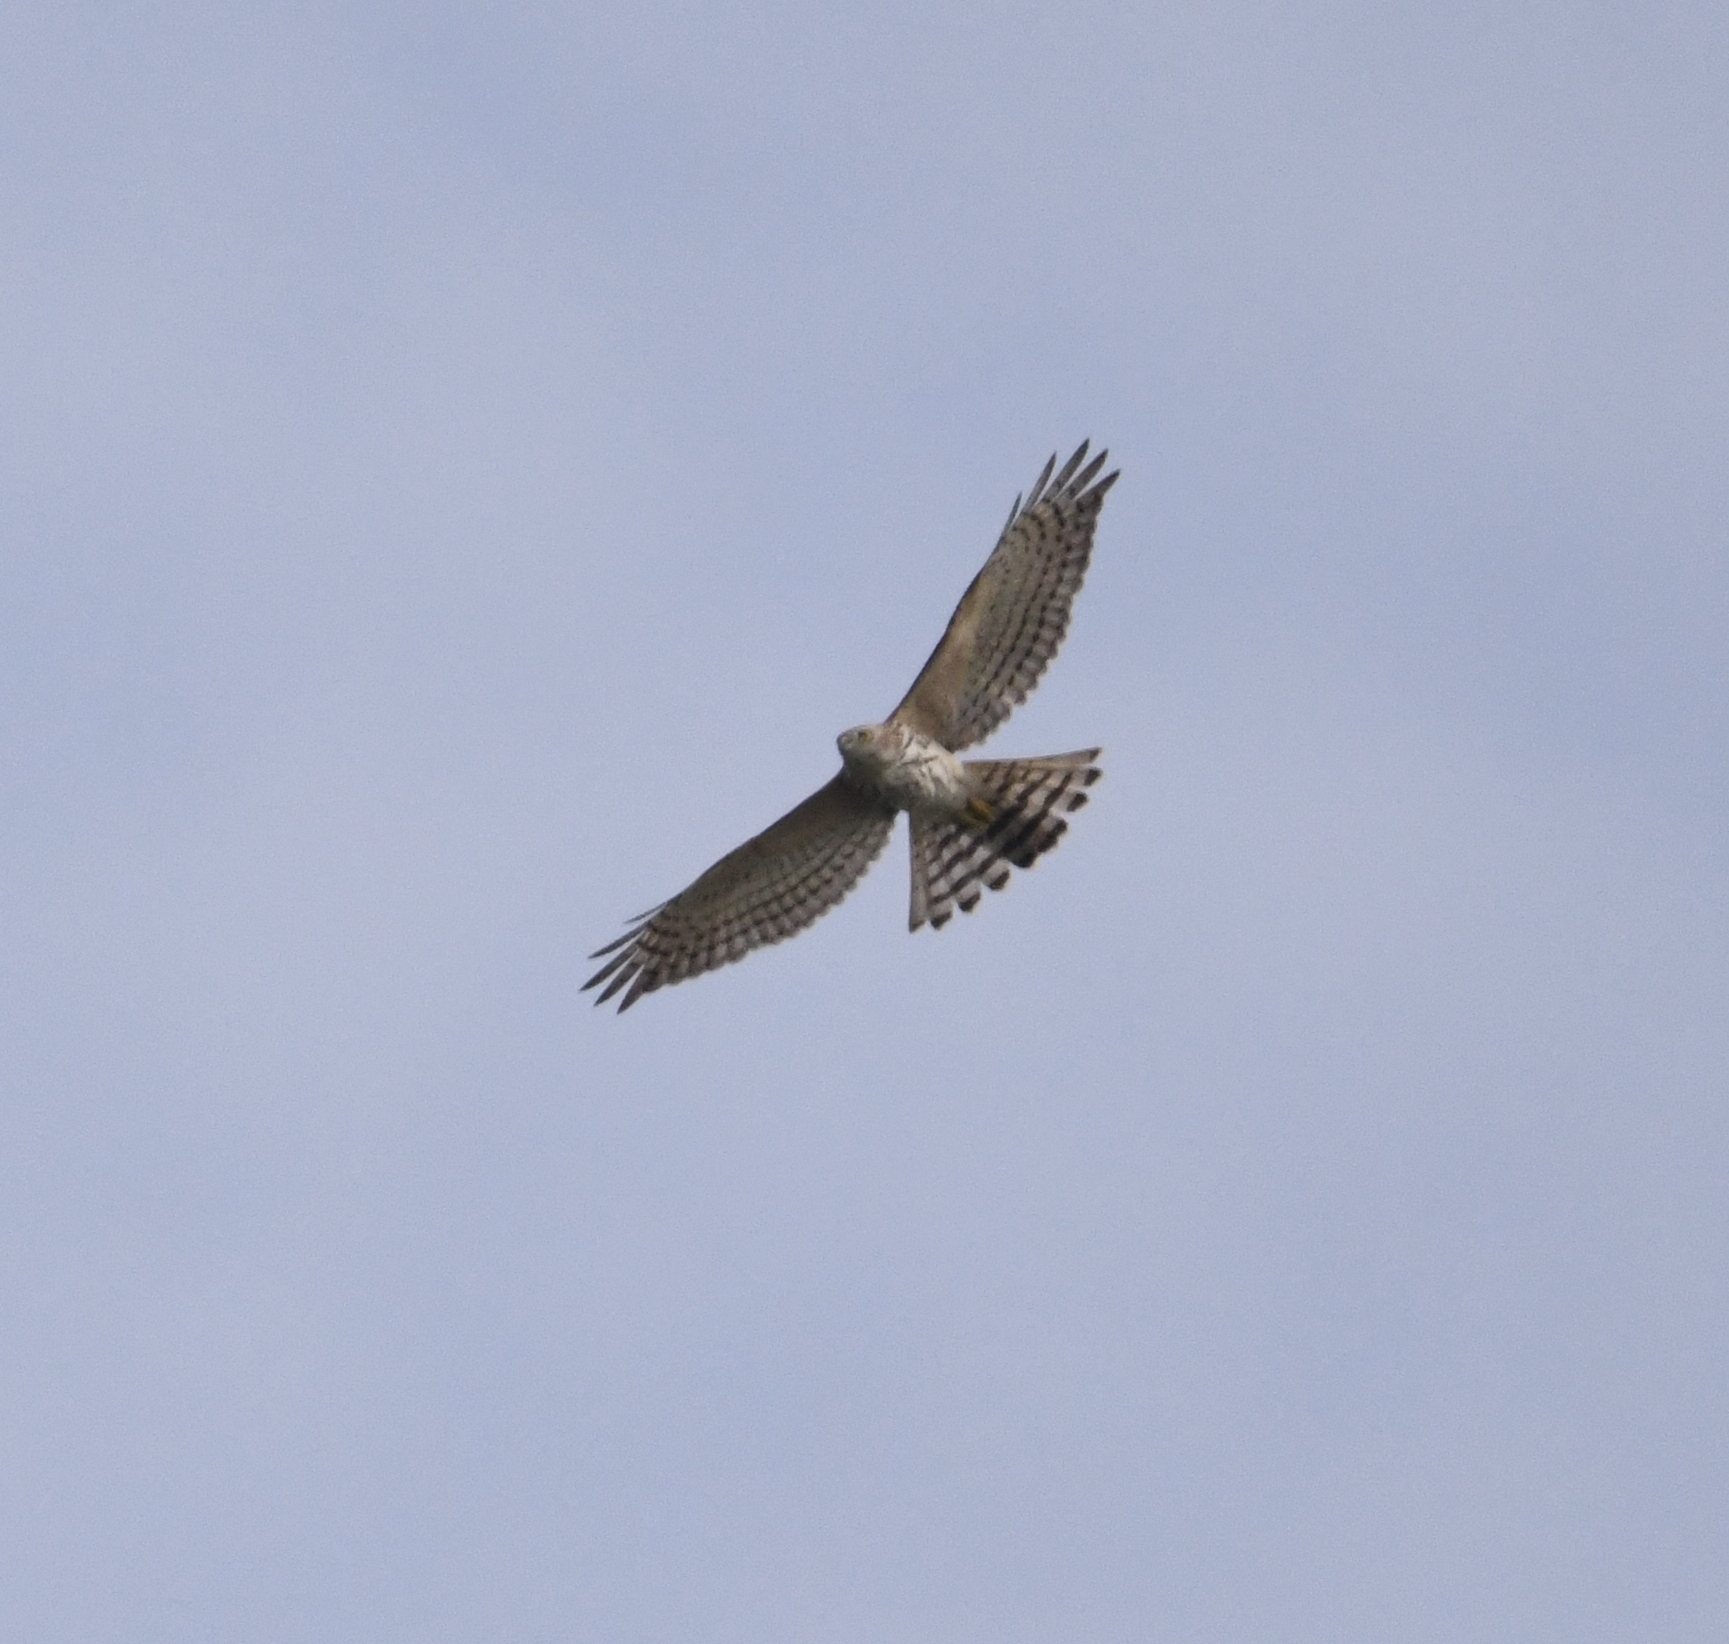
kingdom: Animalia
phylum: Chordata
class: Aves
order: Accipitriformes
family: Accipitridae
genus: Accipiter
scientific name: Accipiter badius
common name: Shikra
